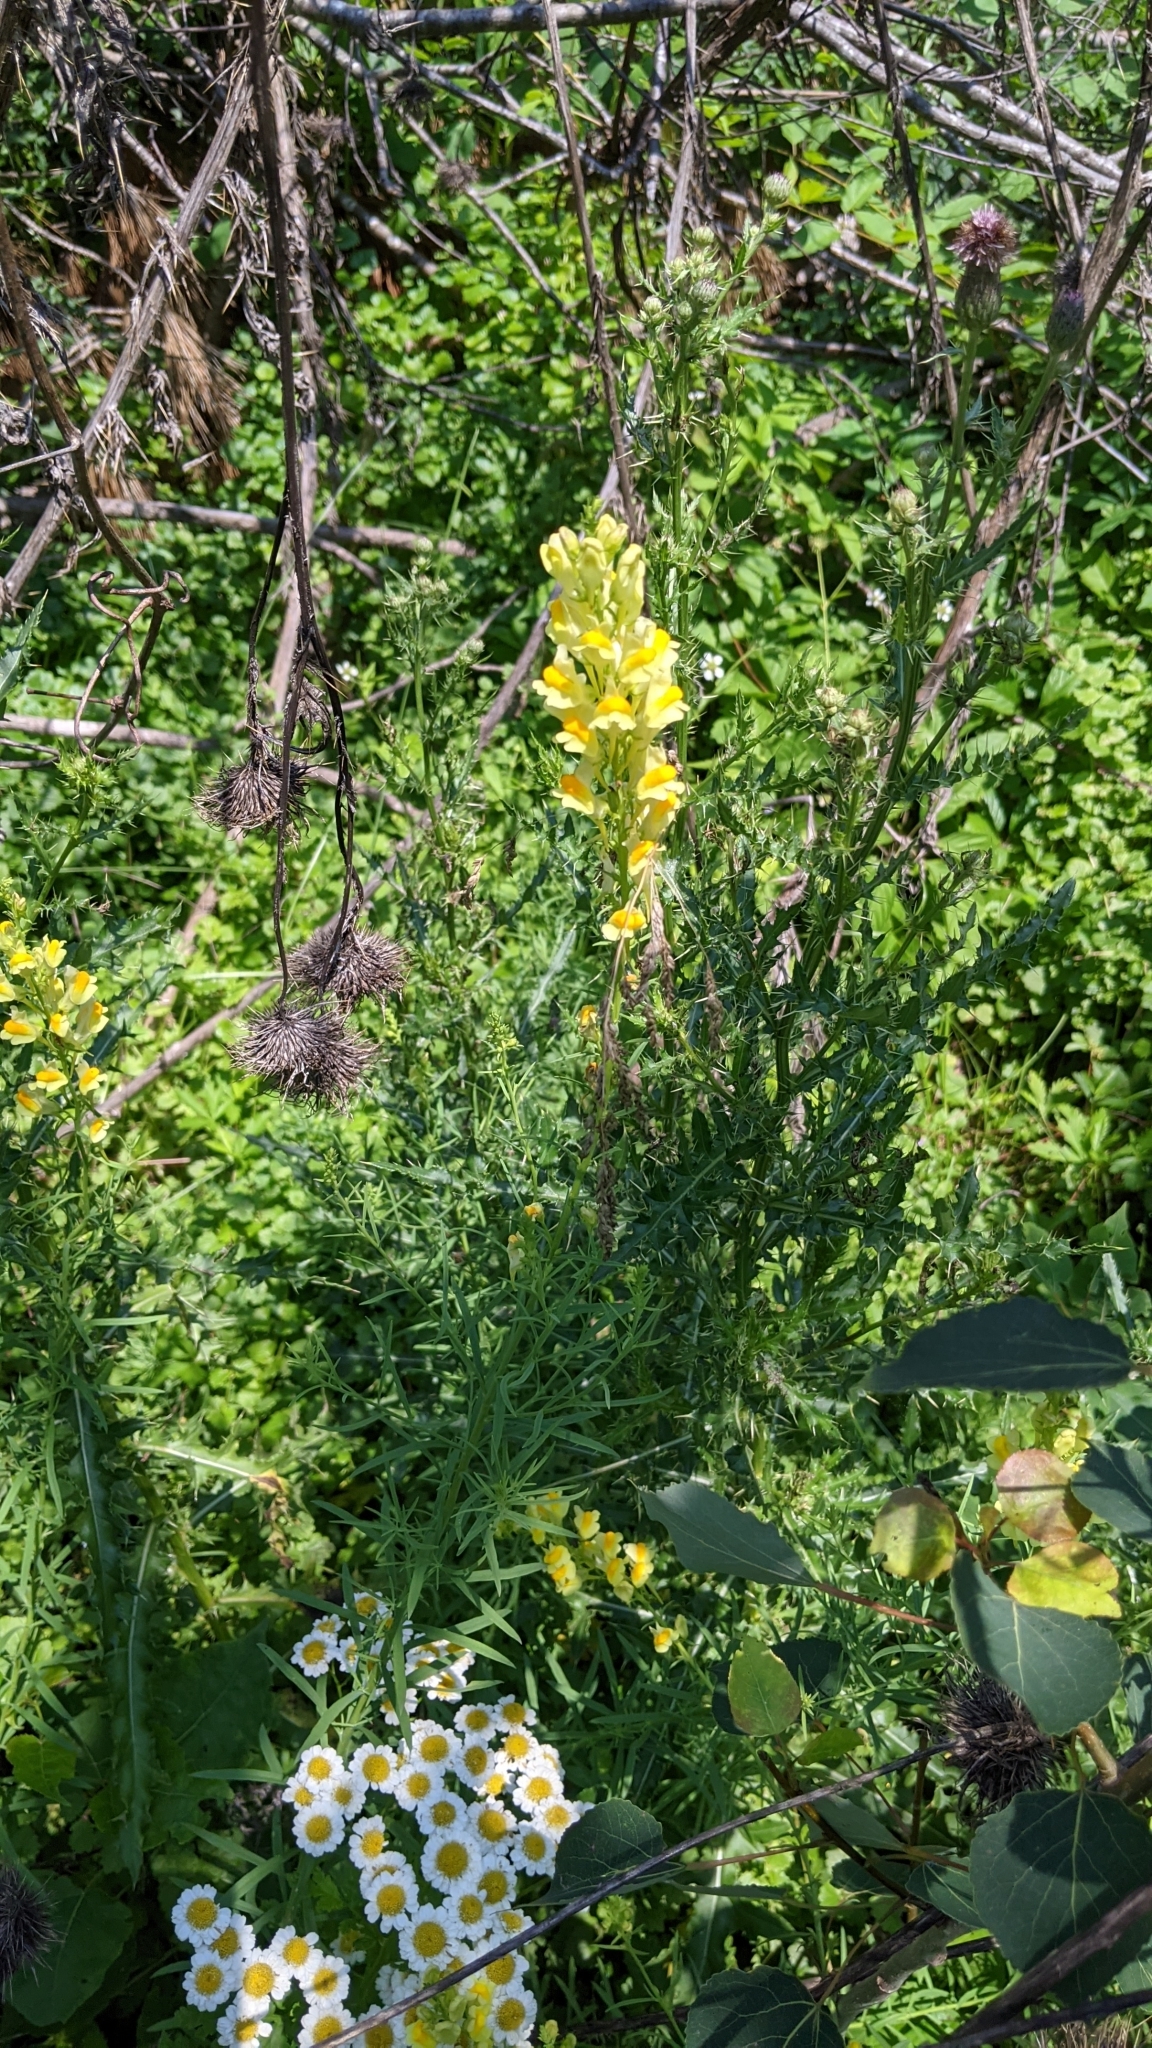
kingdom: Plantae
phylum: Tracheophyta
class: Magnoliopsida
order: Lamiales
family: Plantaginaceae
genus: Linaria
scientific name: Linaria vulgaris
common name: Butter and eggs
